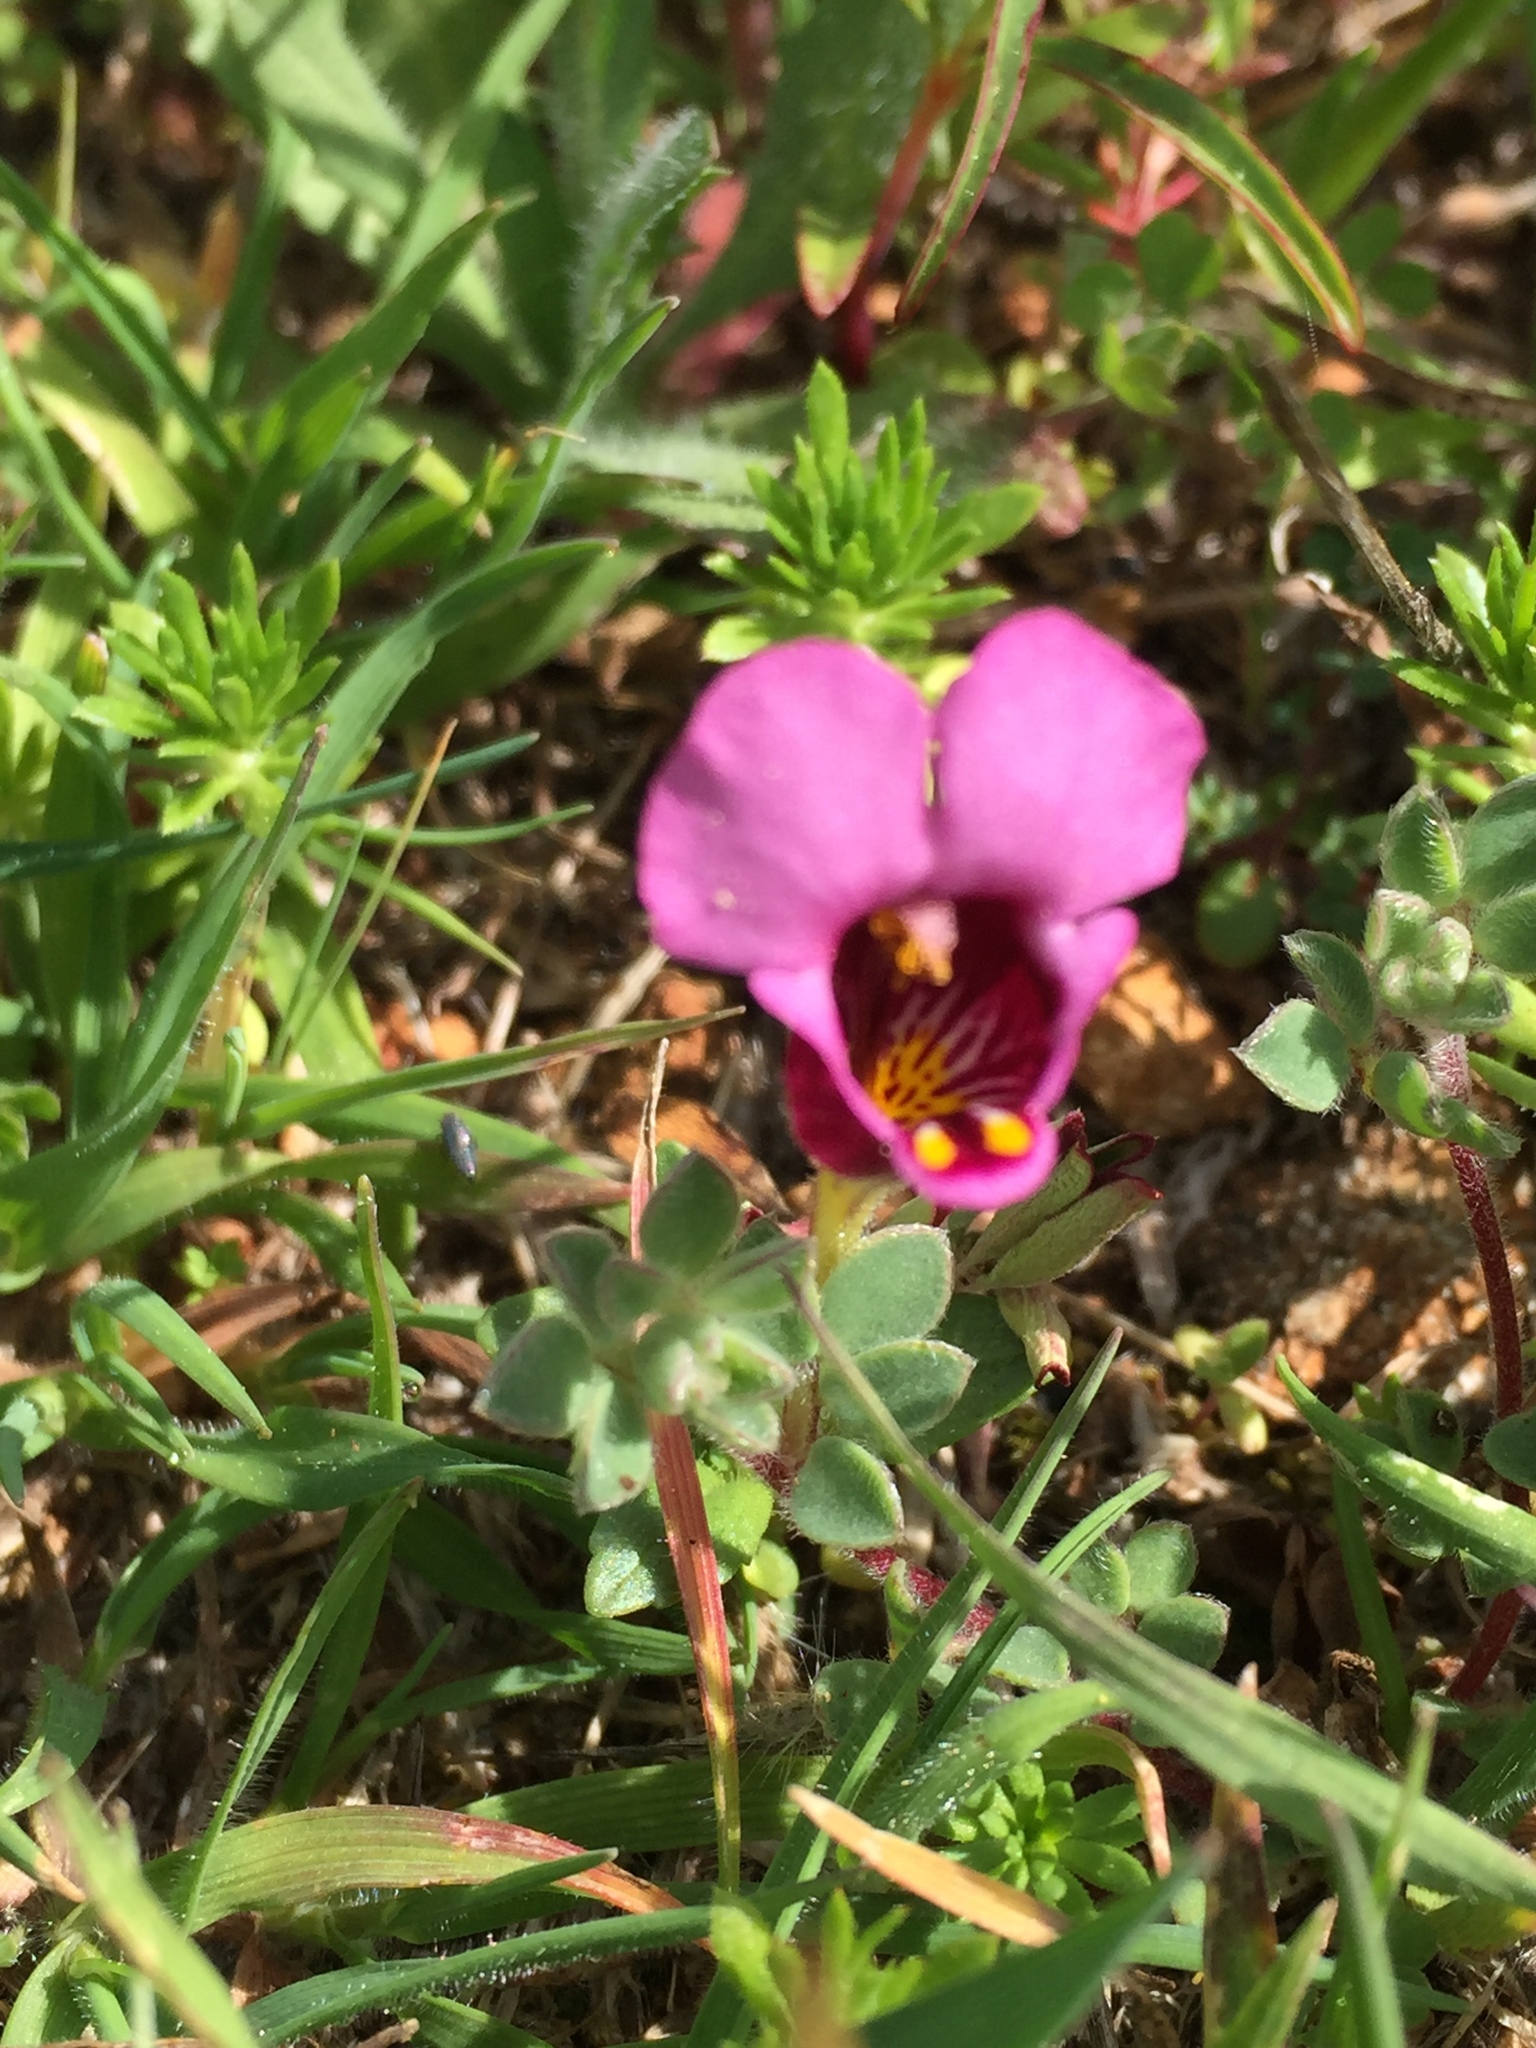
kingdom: Plantae
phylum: Tracheophyta
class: Magnoliopsida
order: Lamiales
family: Phrymaceae
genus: Diplacus
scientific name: Diplacus douglasii
